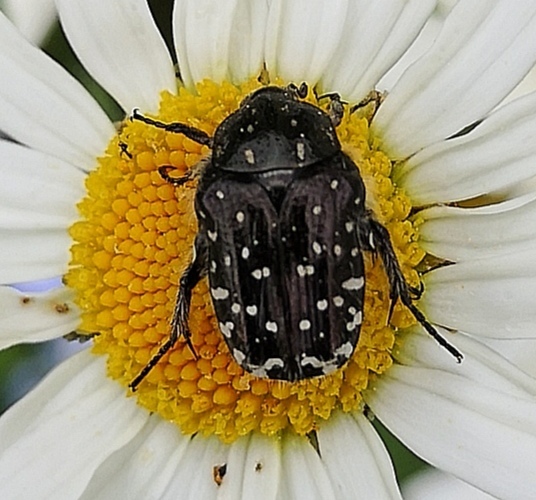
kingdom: Animalia
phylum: Arthropoda
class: Insecta
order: Coleoptera
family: Scarabaeidae
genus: Oxythyrea
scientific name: Oxythyrea funesta
